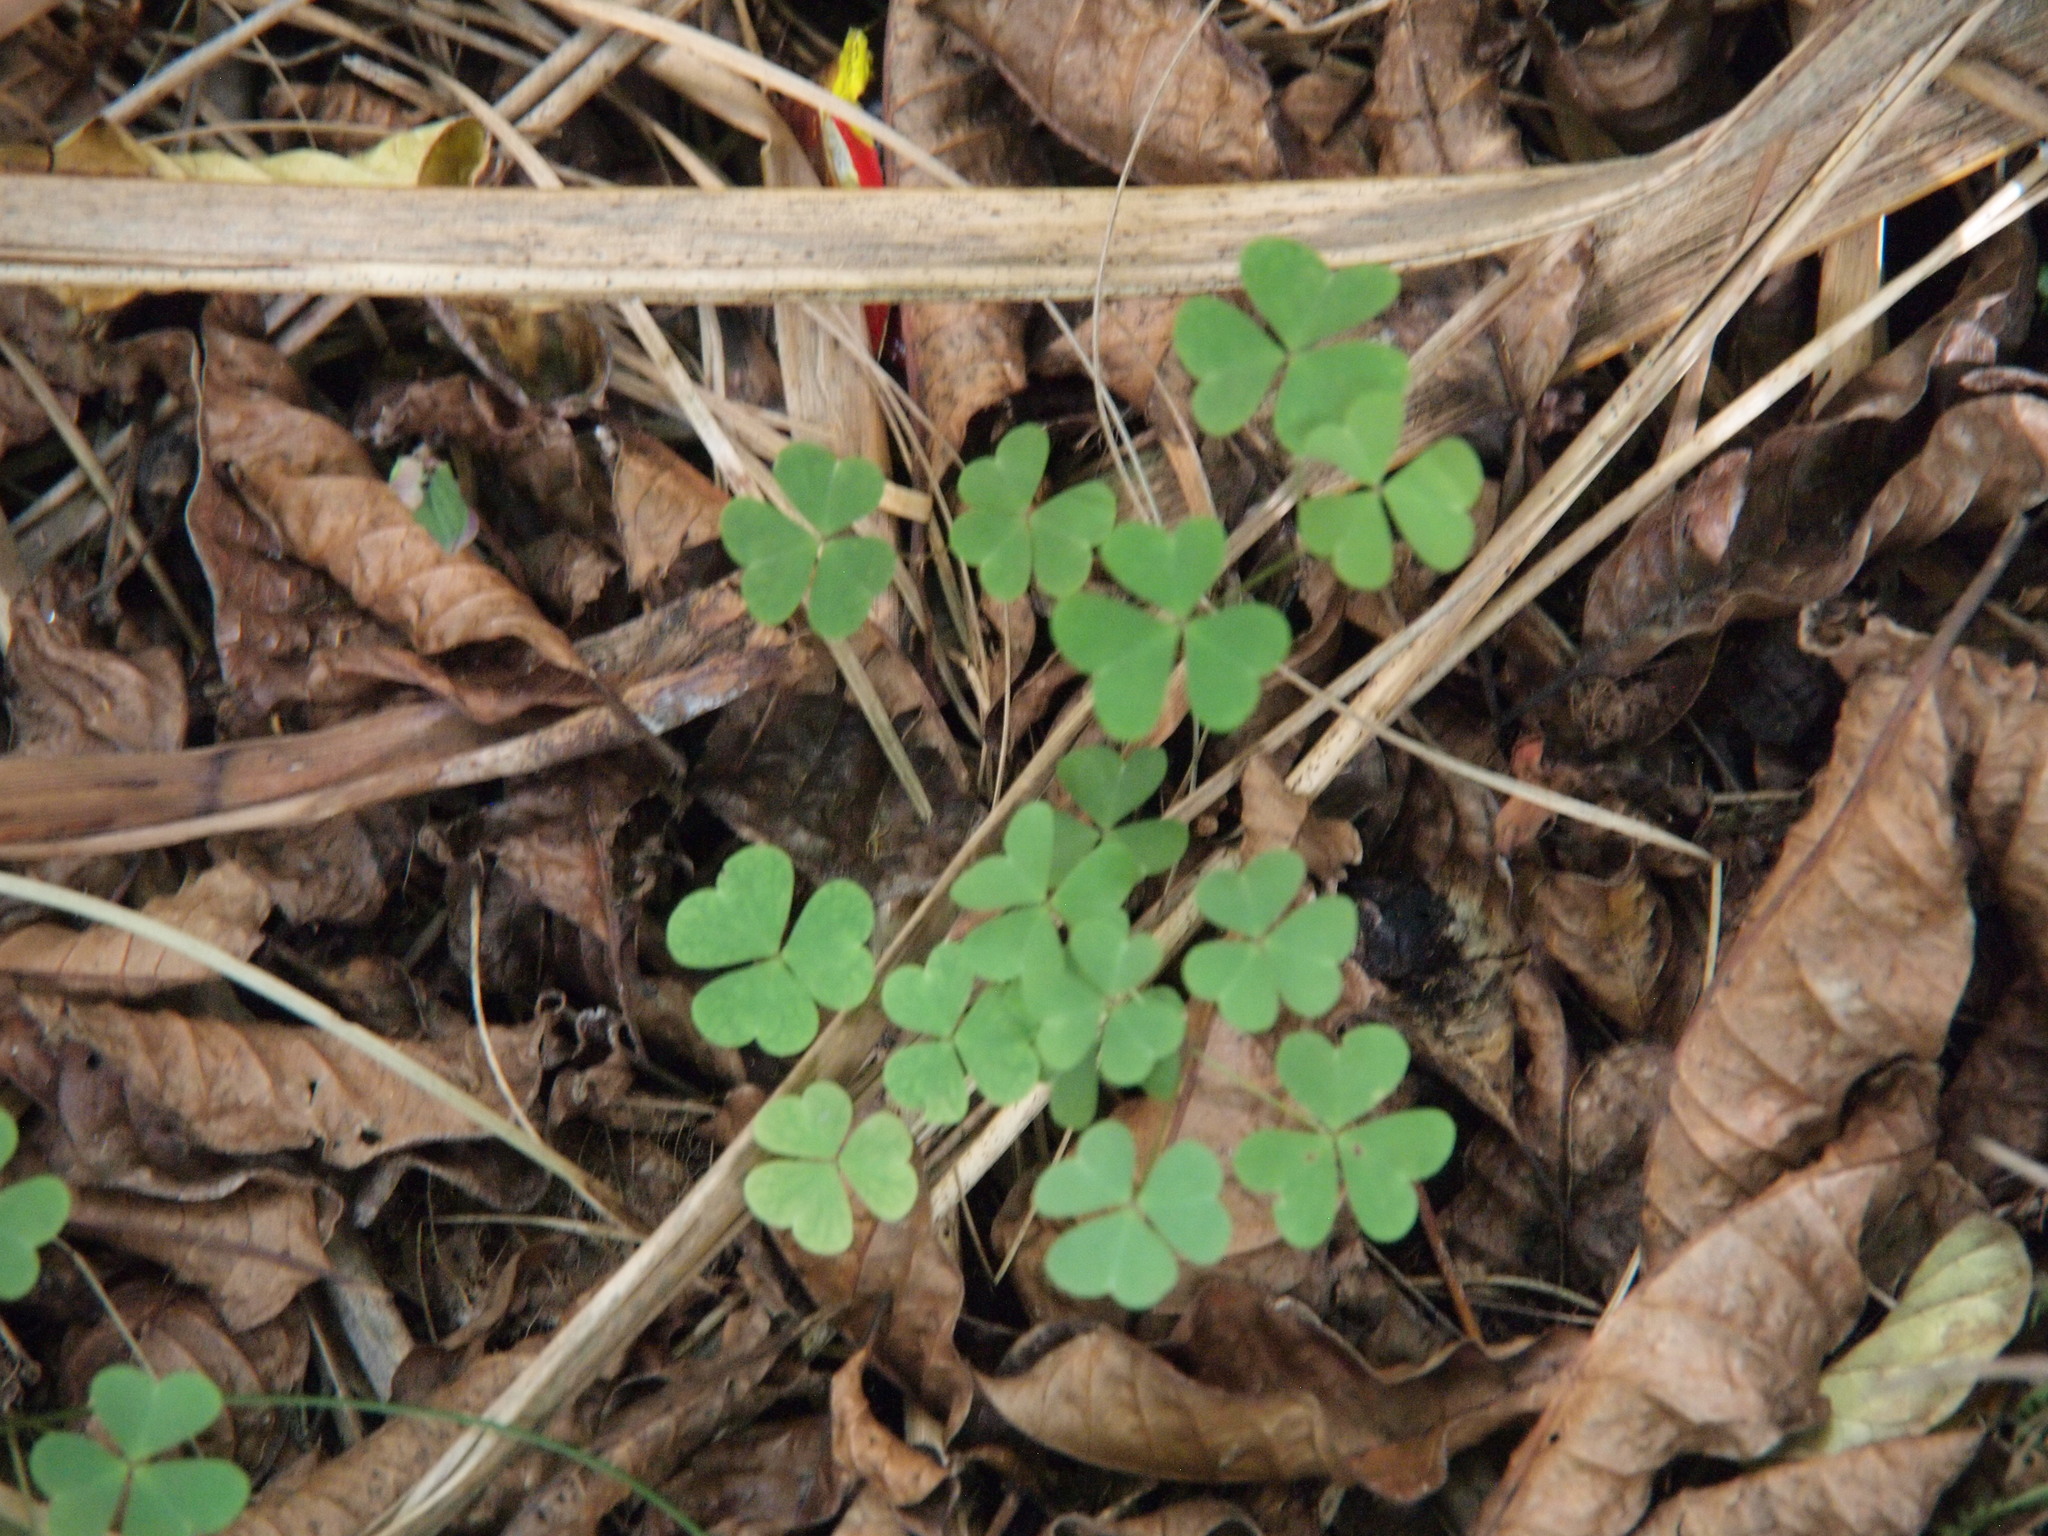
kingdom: Plantae
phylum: Tracheophyta
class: Magnoliopsida
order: Oxalidales
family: Oxalidaceae
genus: Oxalis
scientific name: Oxalis corniculata
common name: Procumbent yellow-sorrel
